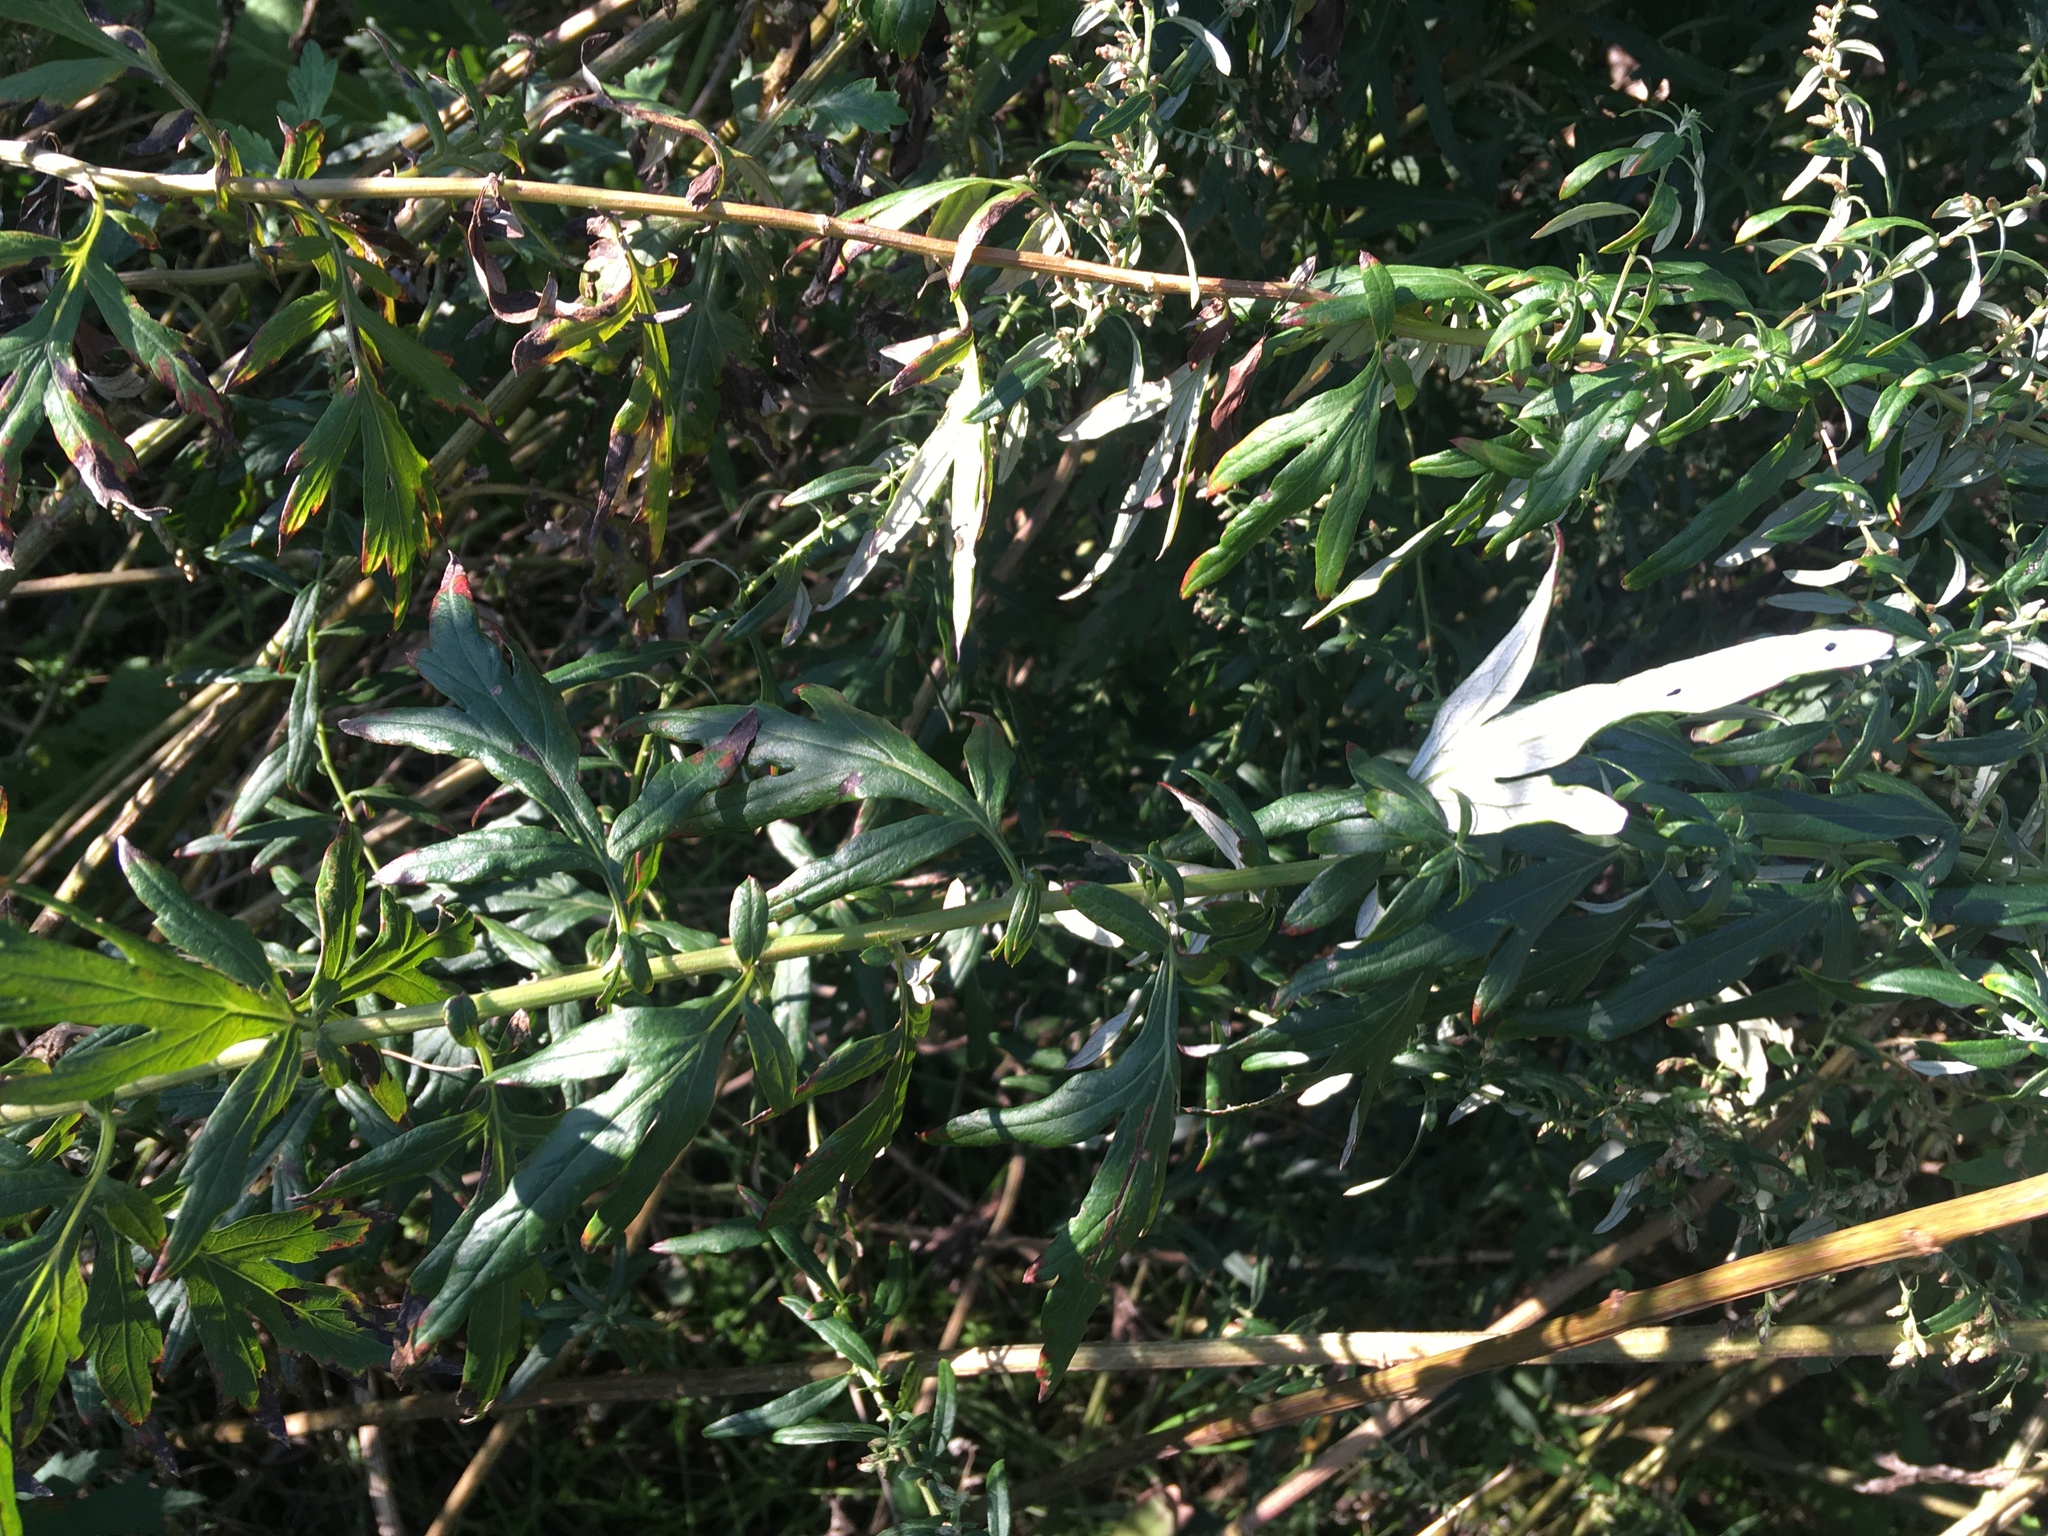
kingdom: Plantae
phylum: Tracheophyta
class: Magnoliopsida
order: Asterales
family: Asteraceae
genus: Artemisia
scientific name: Artemisia vulgaris
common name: Mugwort
